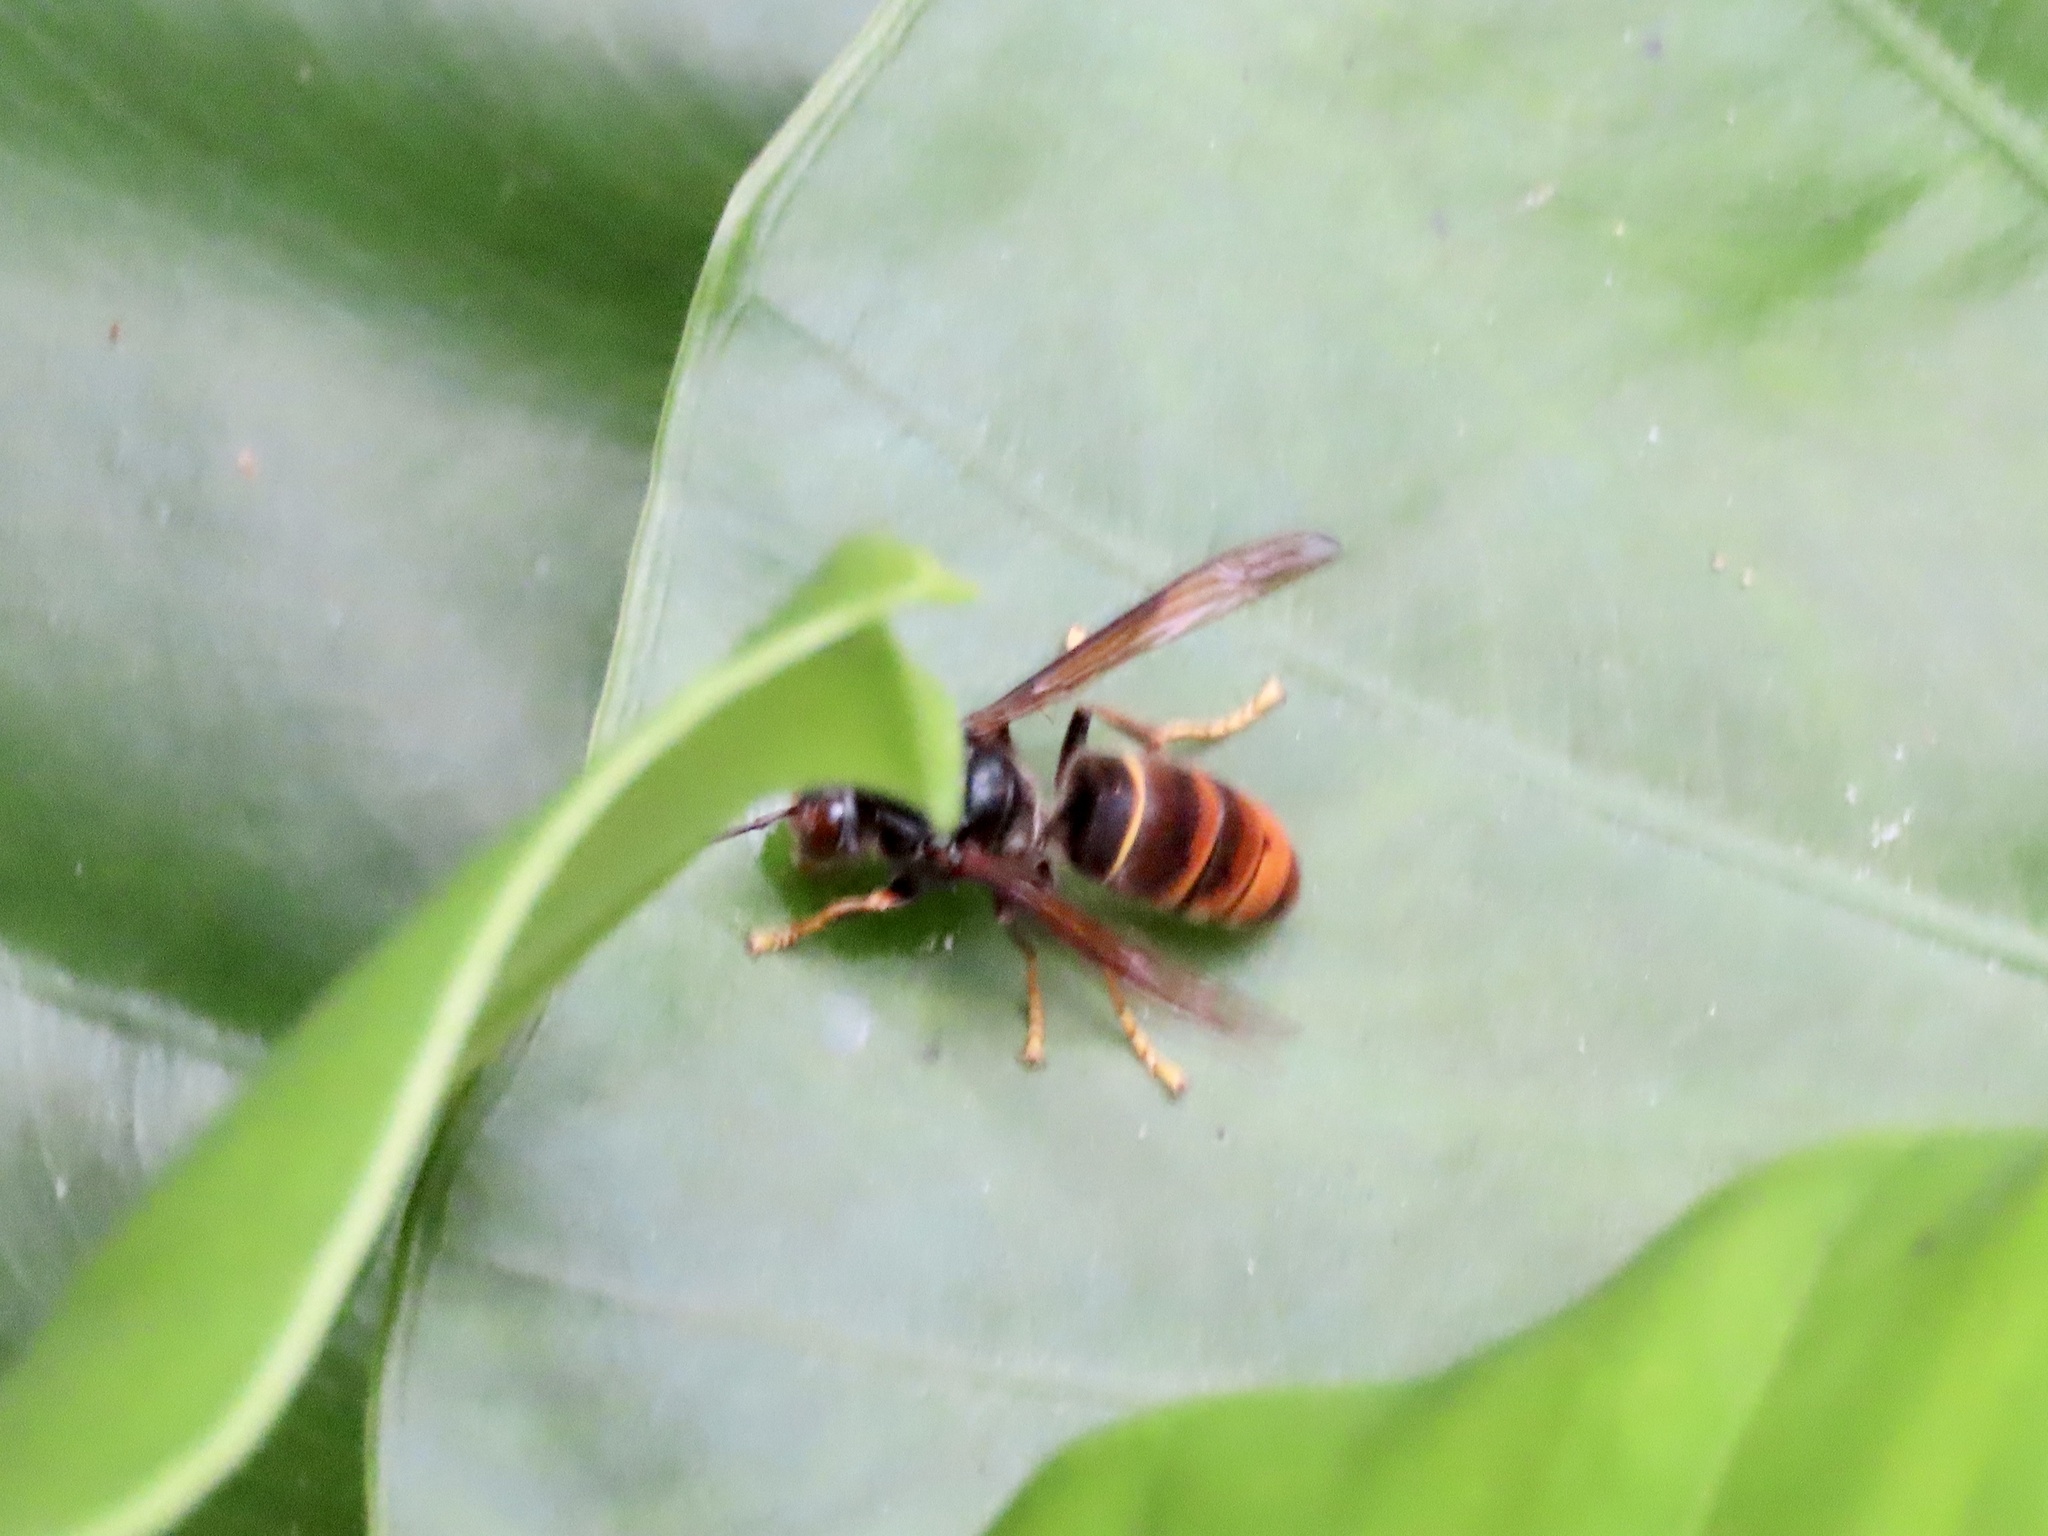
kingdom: Animalia
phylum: Arthropoda
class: Insecta
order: Hymenoptera
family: Vespidae
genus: Vespa
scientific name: Vespa velutina
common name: Asian hornet
